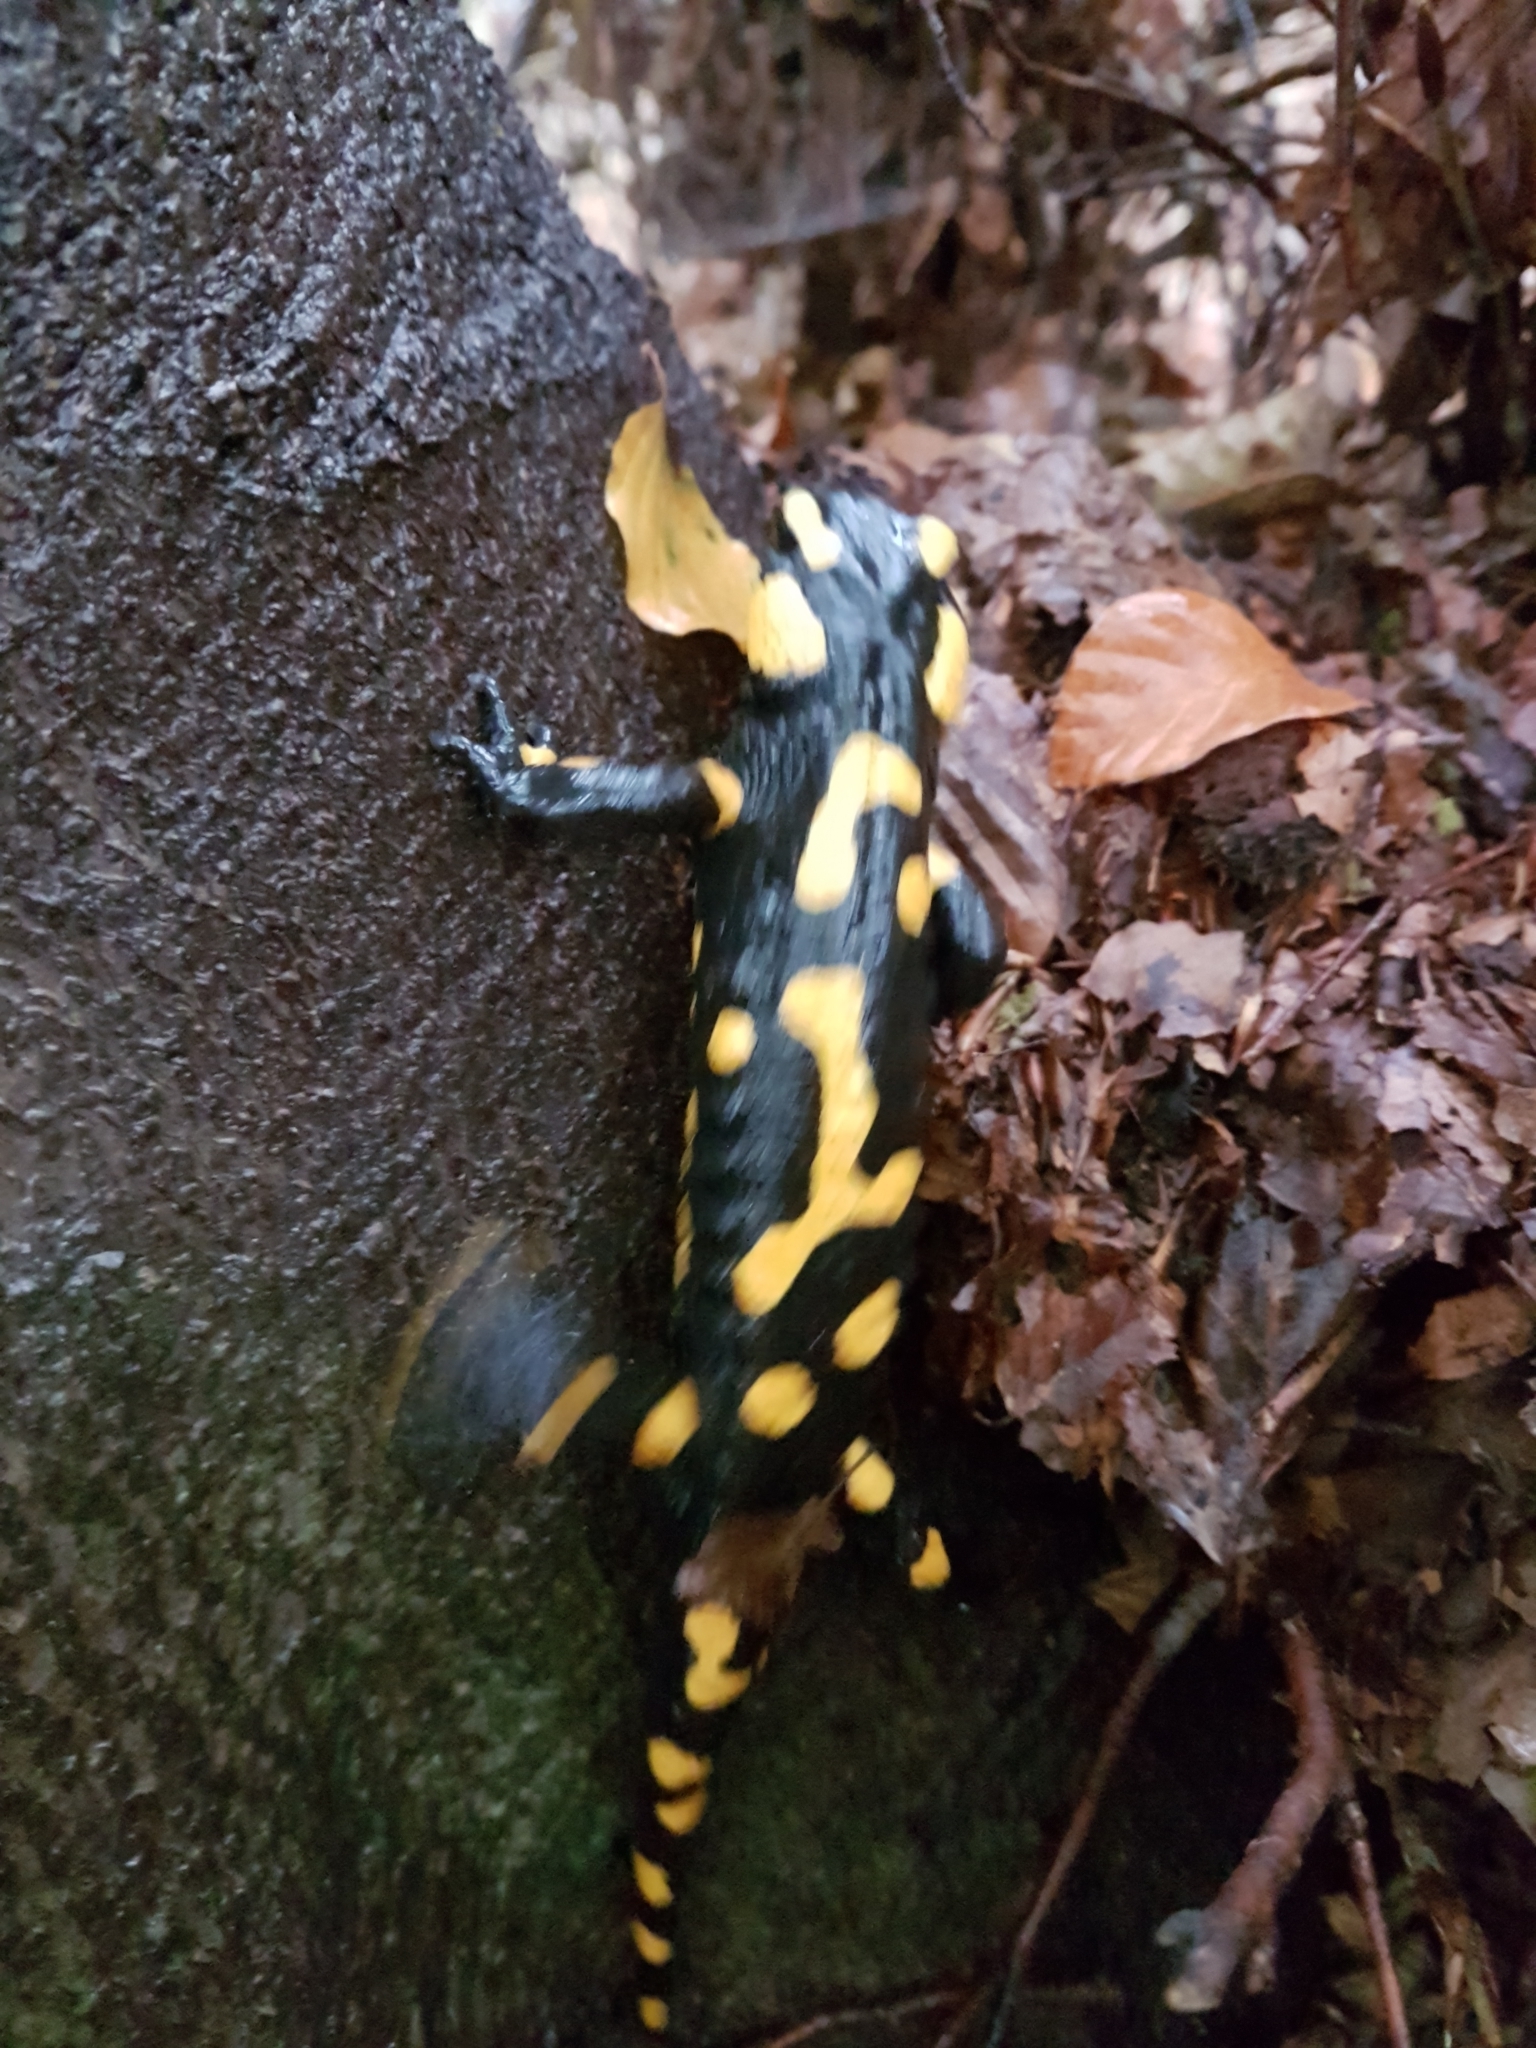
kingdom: Animalia
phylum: Chordata
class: Amphibia
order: Caudata
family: Salamandridae
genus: Salamandra
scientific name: Salamandra salamandra
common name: Fire salamander
